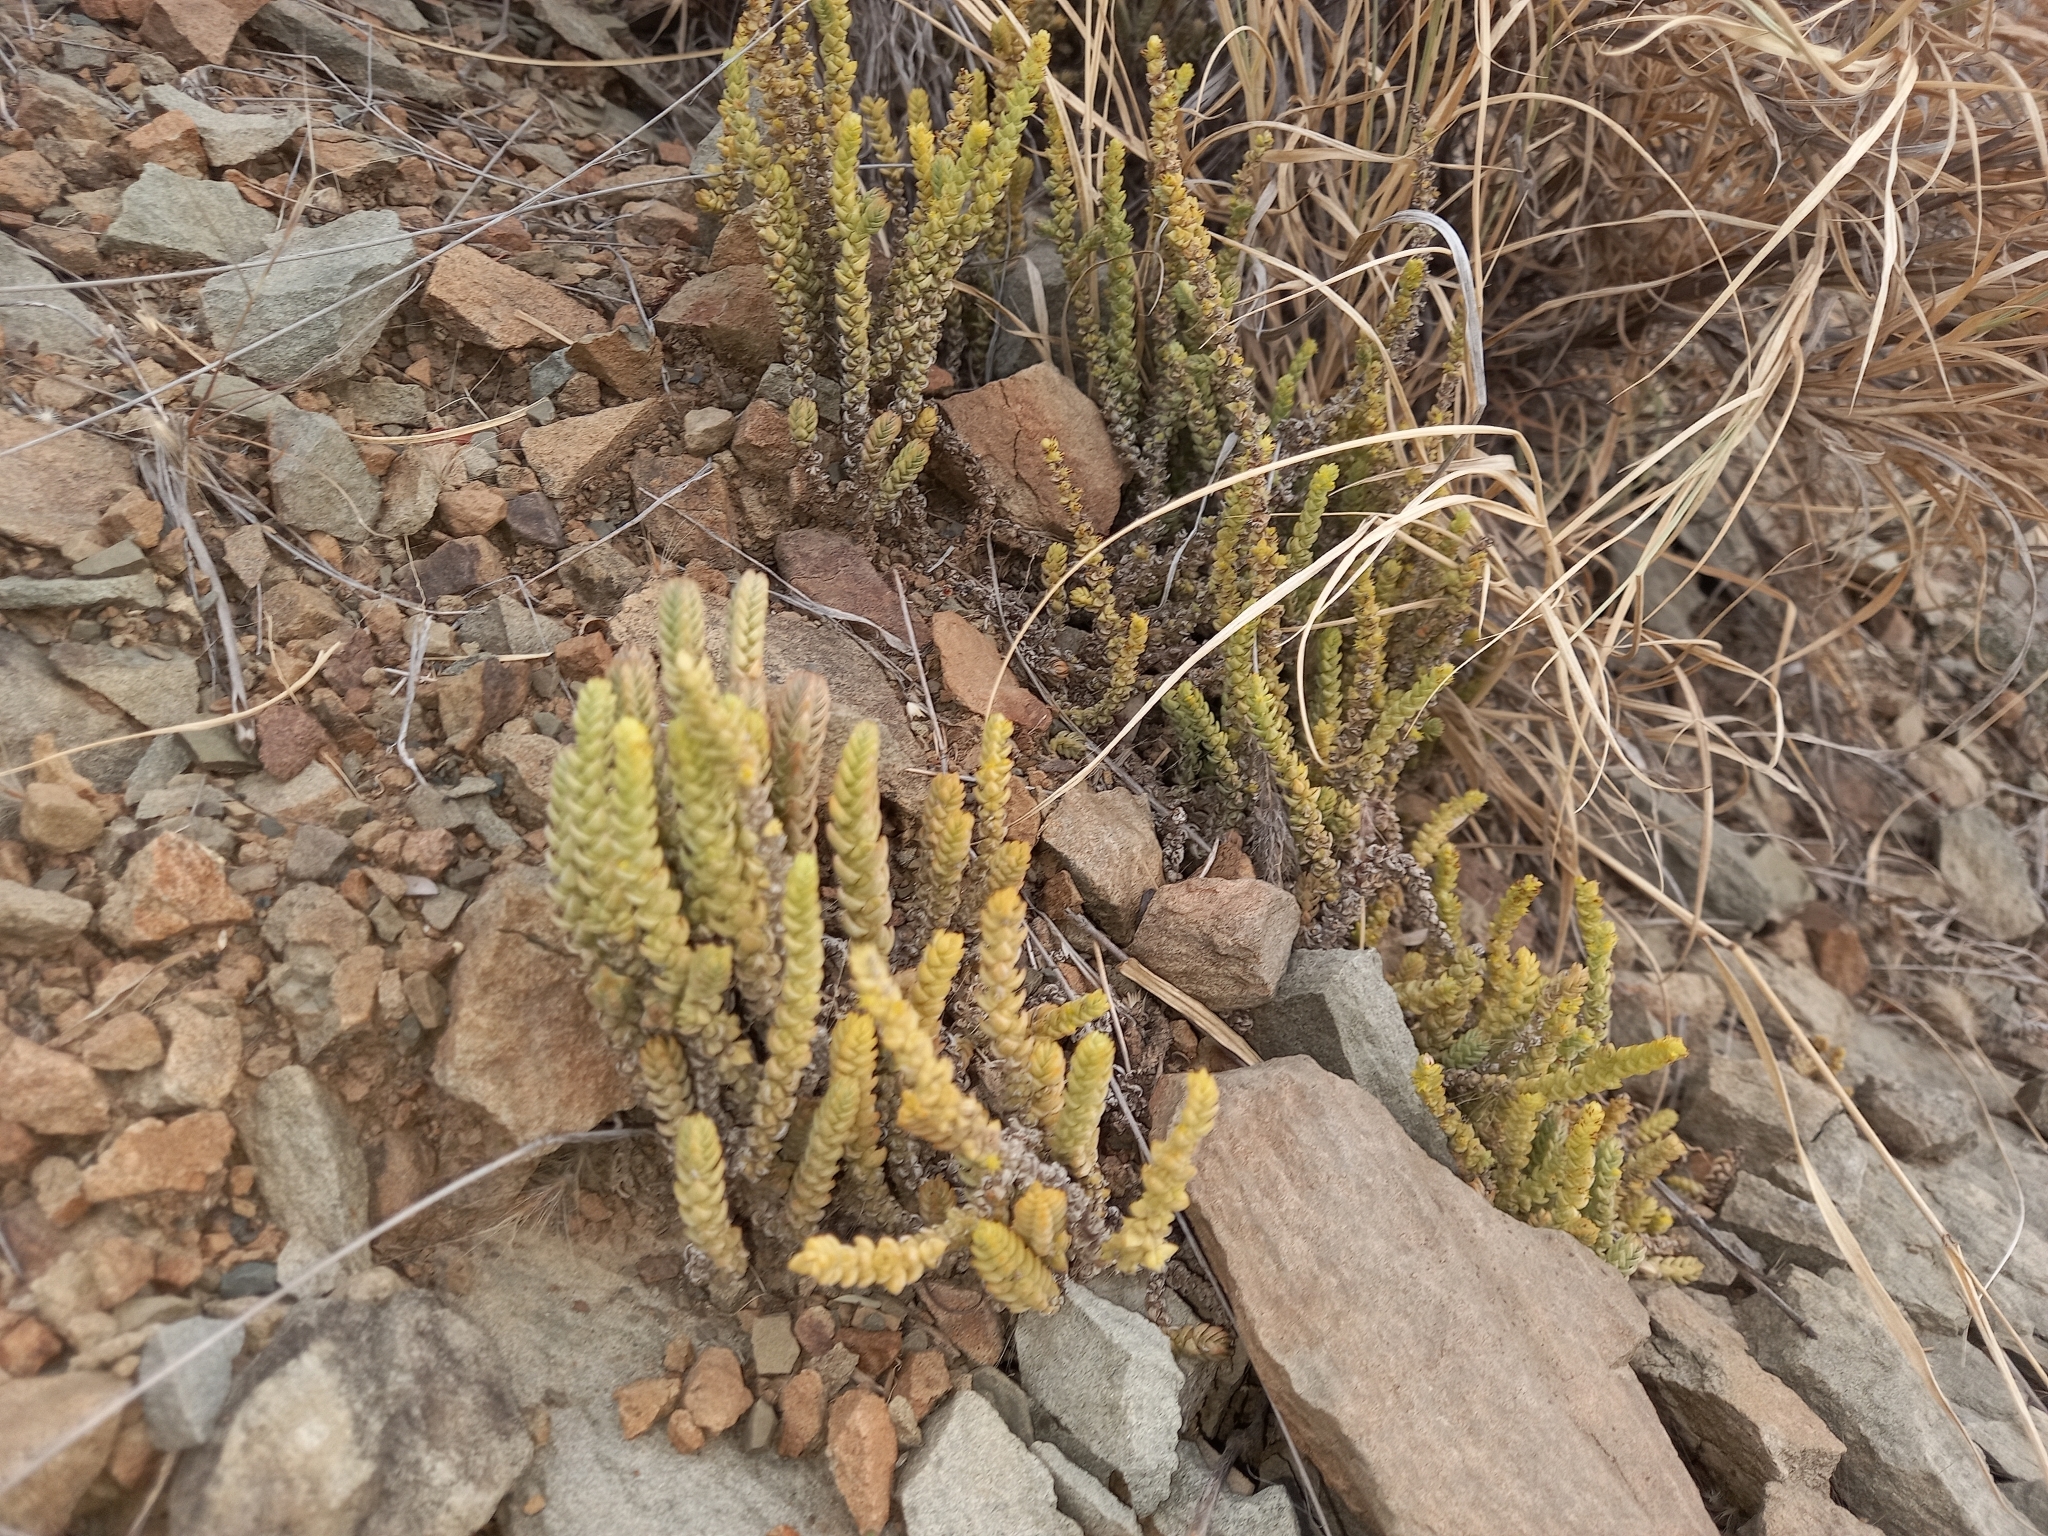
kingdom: Plantae
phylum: Tracheophyta
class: Magnoliopsida
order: Saxifragales
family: Crassulaceae
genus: Crassula
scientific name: Crassula muscosa
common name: Toy-cypress
